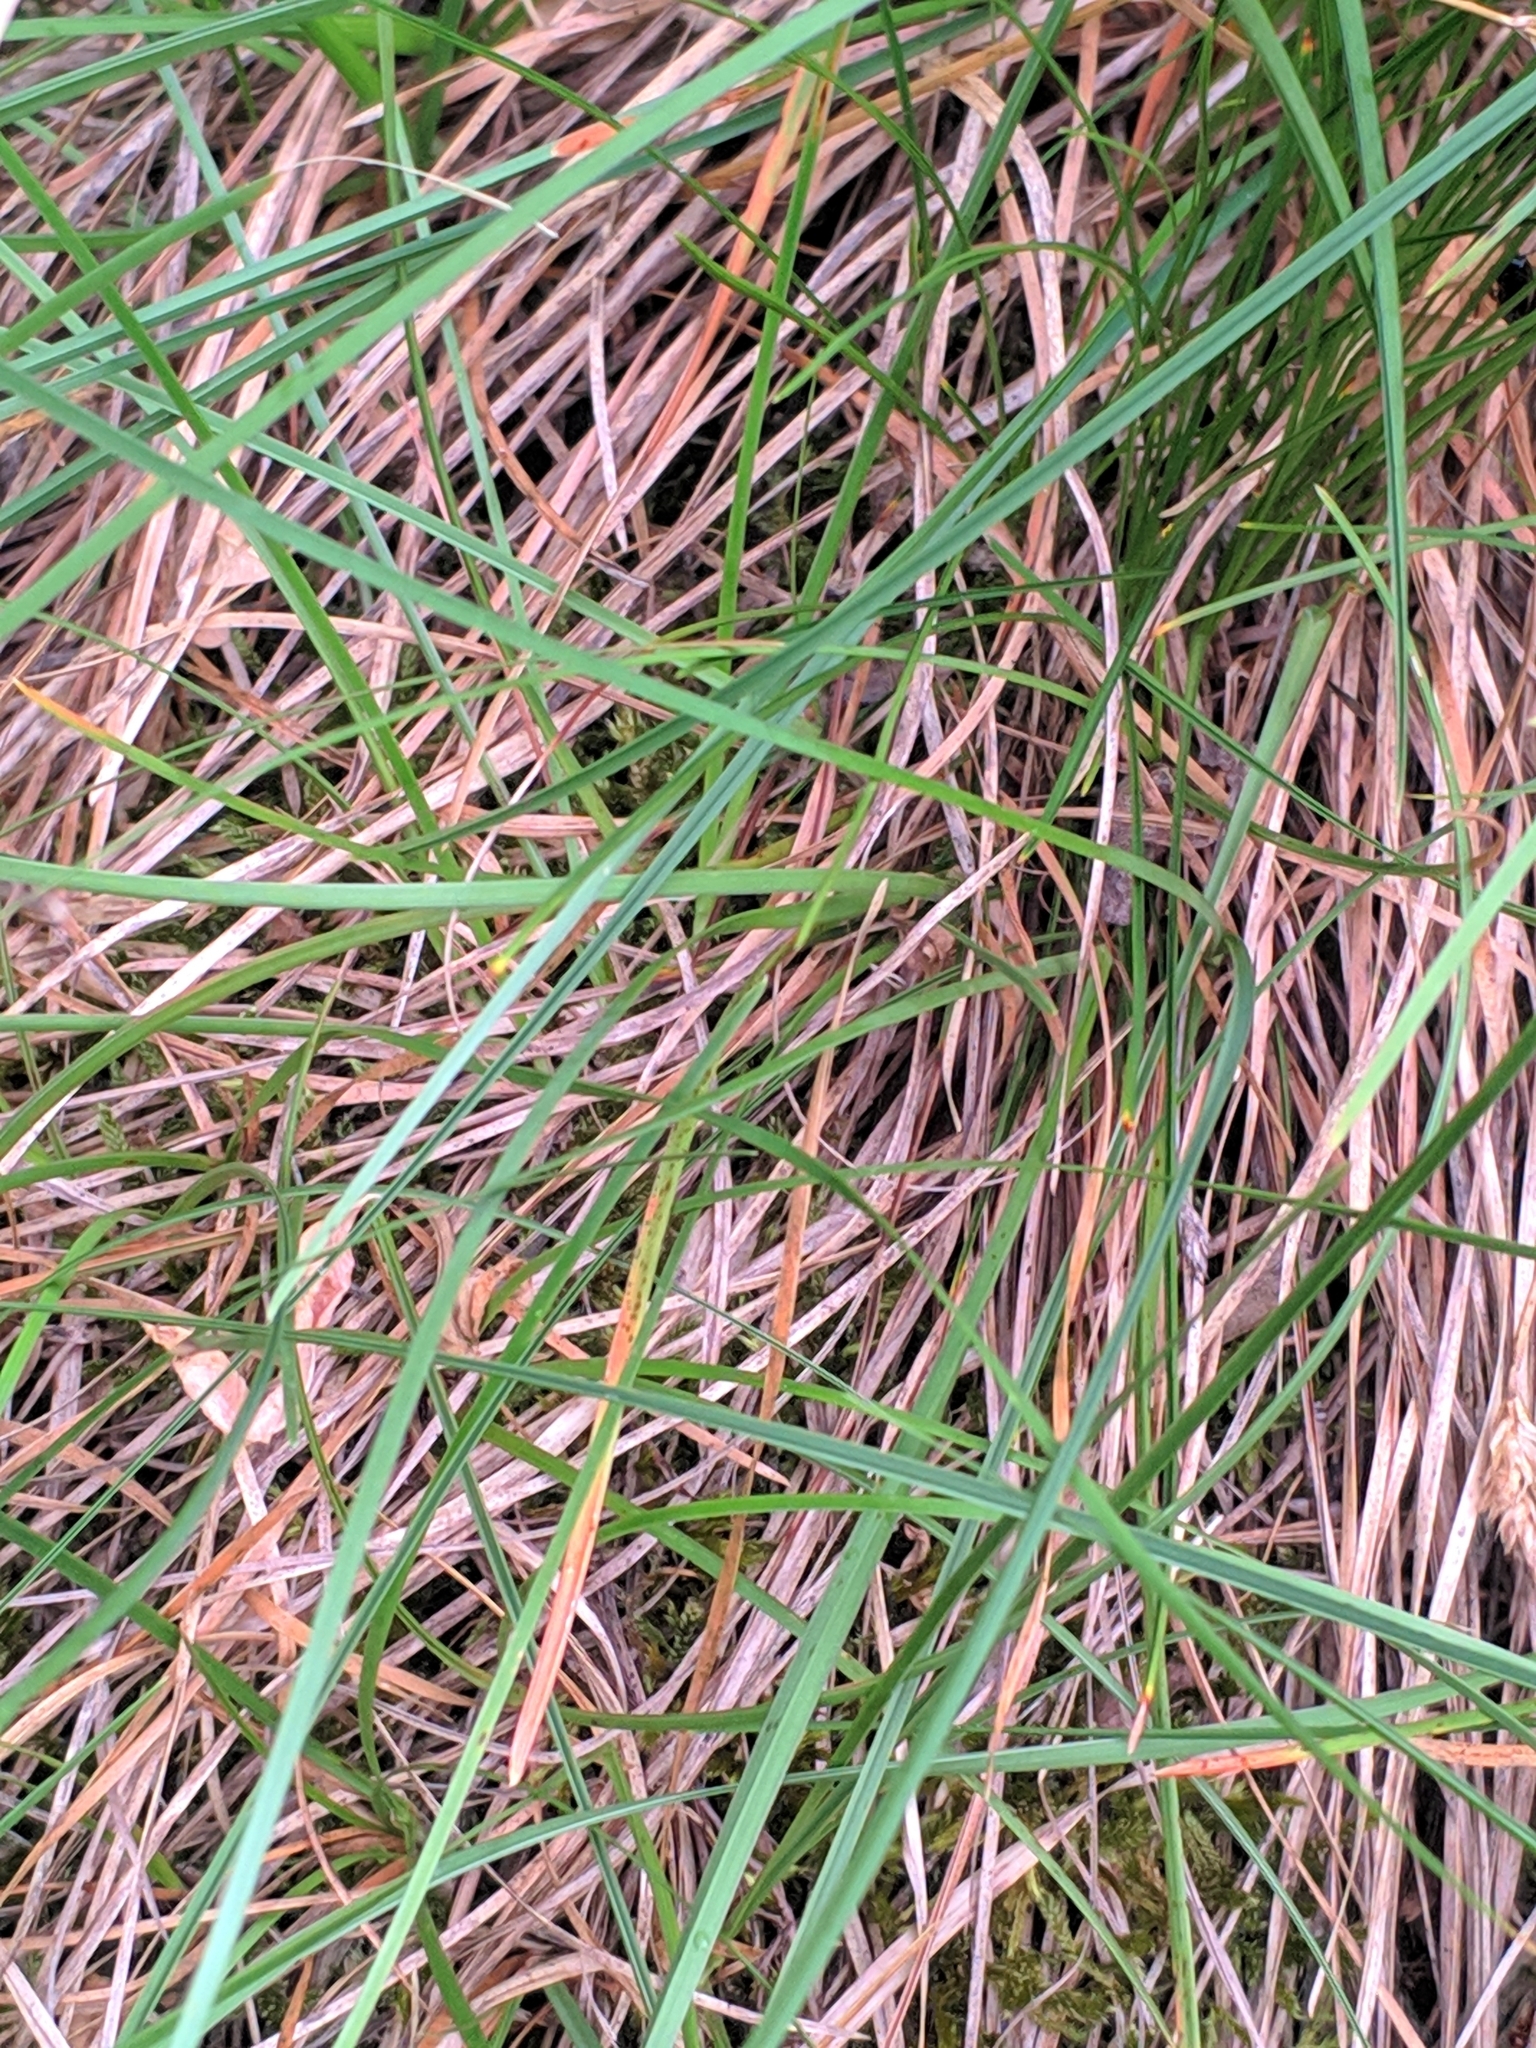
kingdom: Plantae
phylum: Tracheophyta
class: Liliopsida
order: Poales
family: Poaceae
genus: Sesleria
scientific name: Sesleria caerulea
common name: Blue moor-grass
